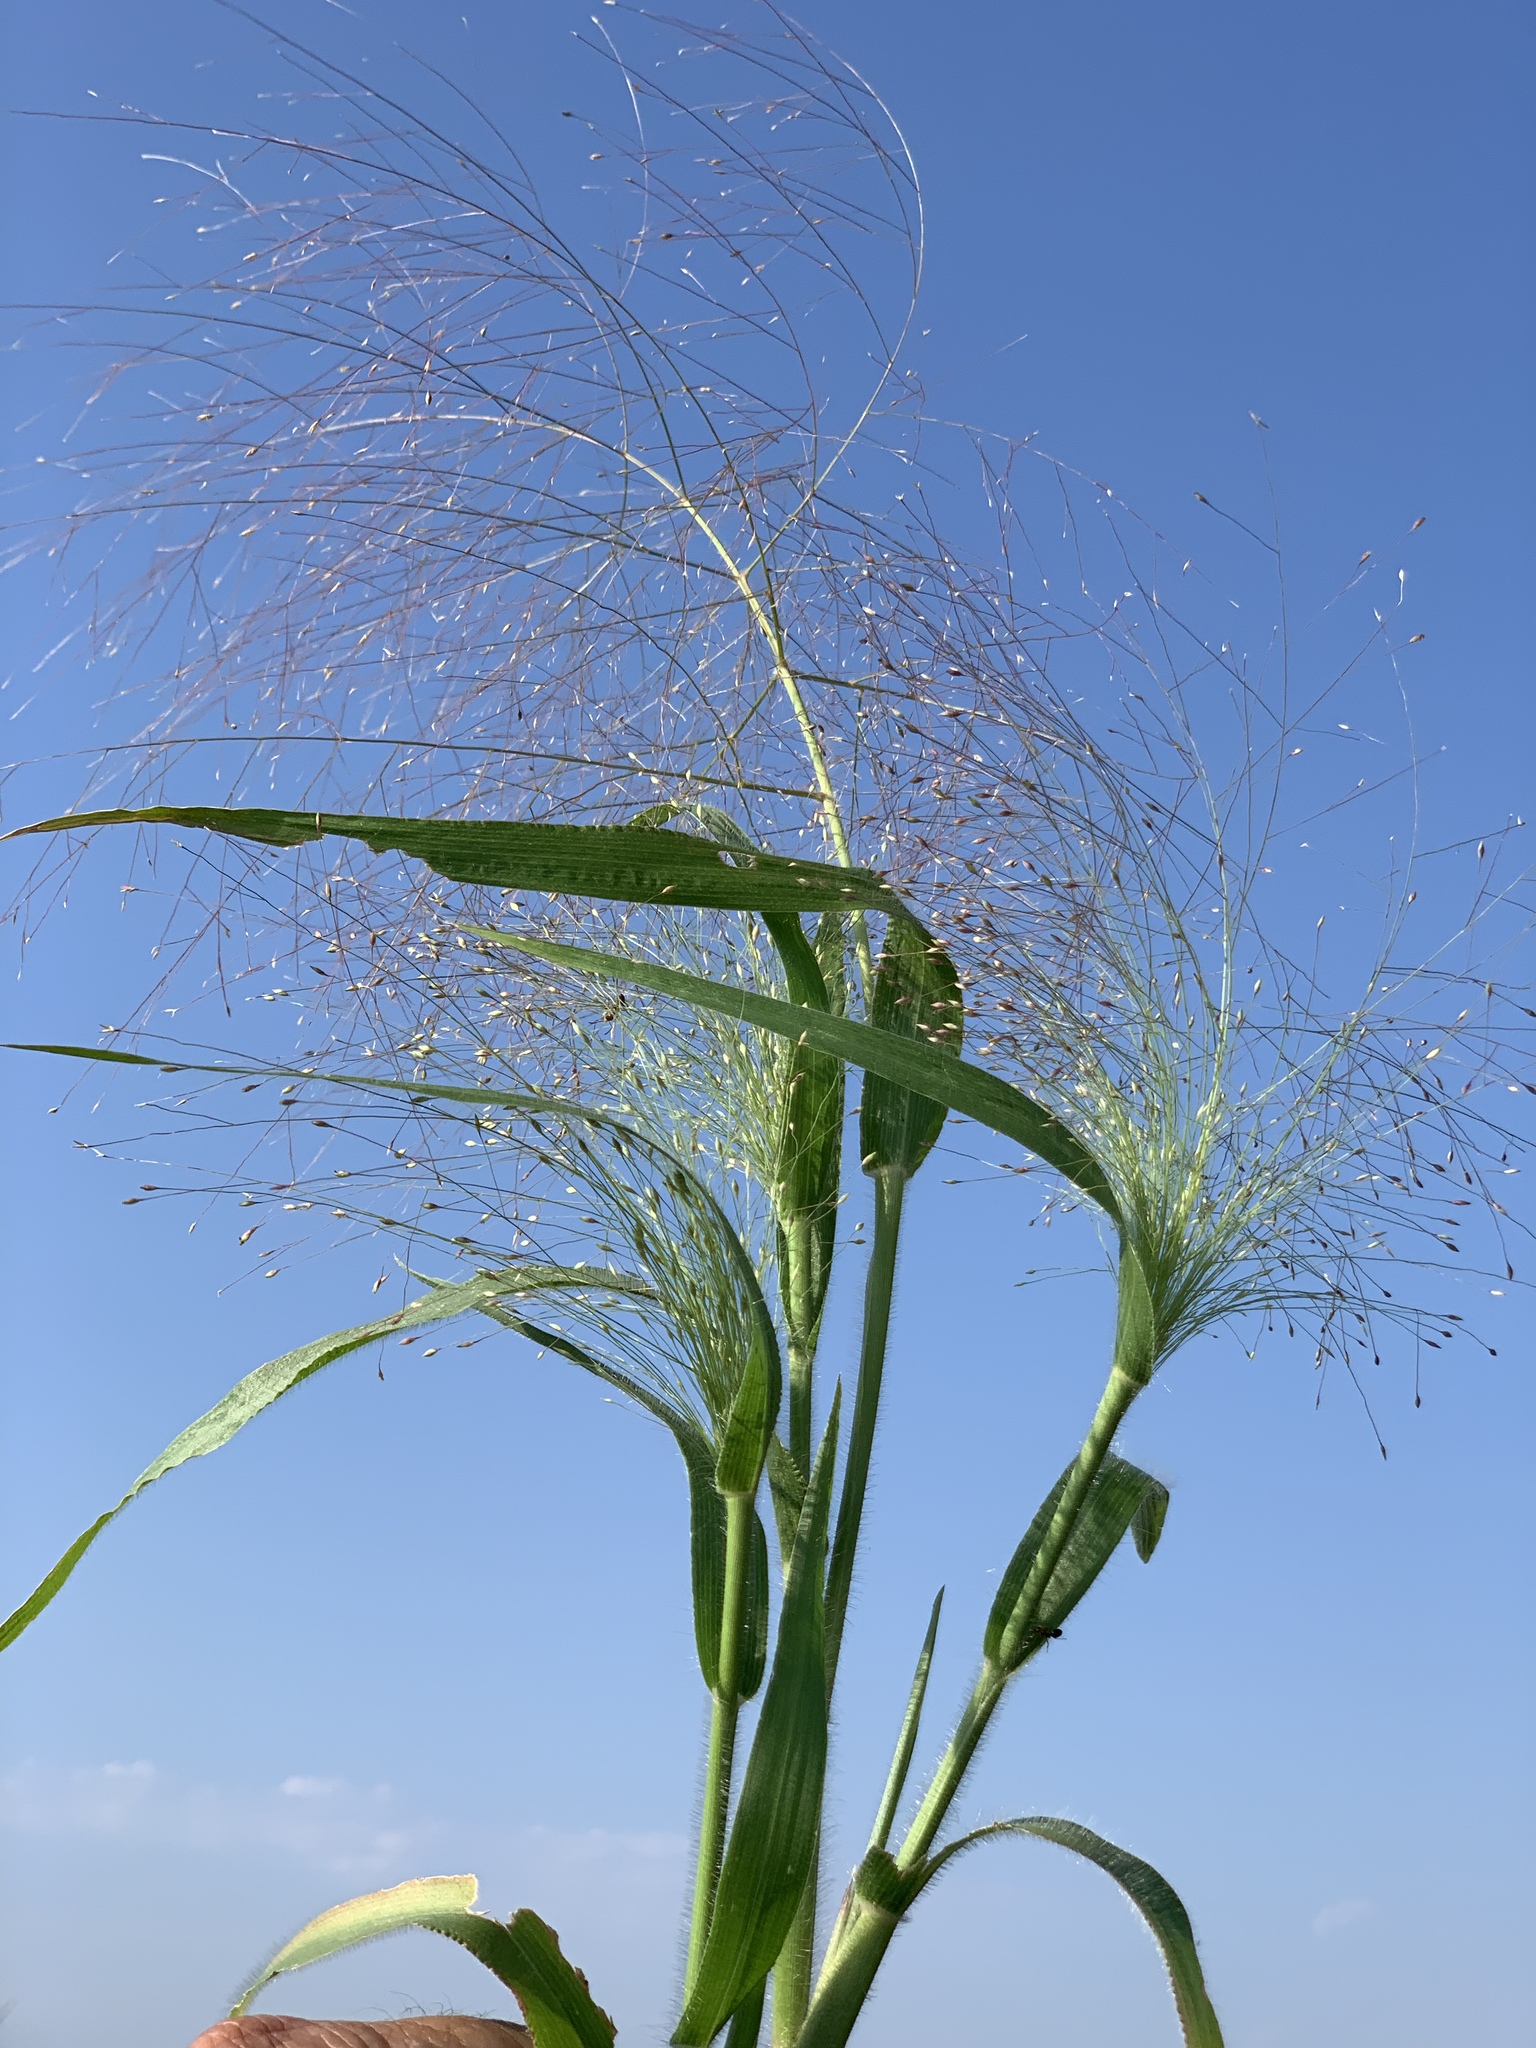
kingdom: Plantae
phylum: Tracheophyta
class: Liliopsida
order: Poales
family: Poaceae
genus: Panicum
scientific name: Panicum capillare
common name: Witch-grass
